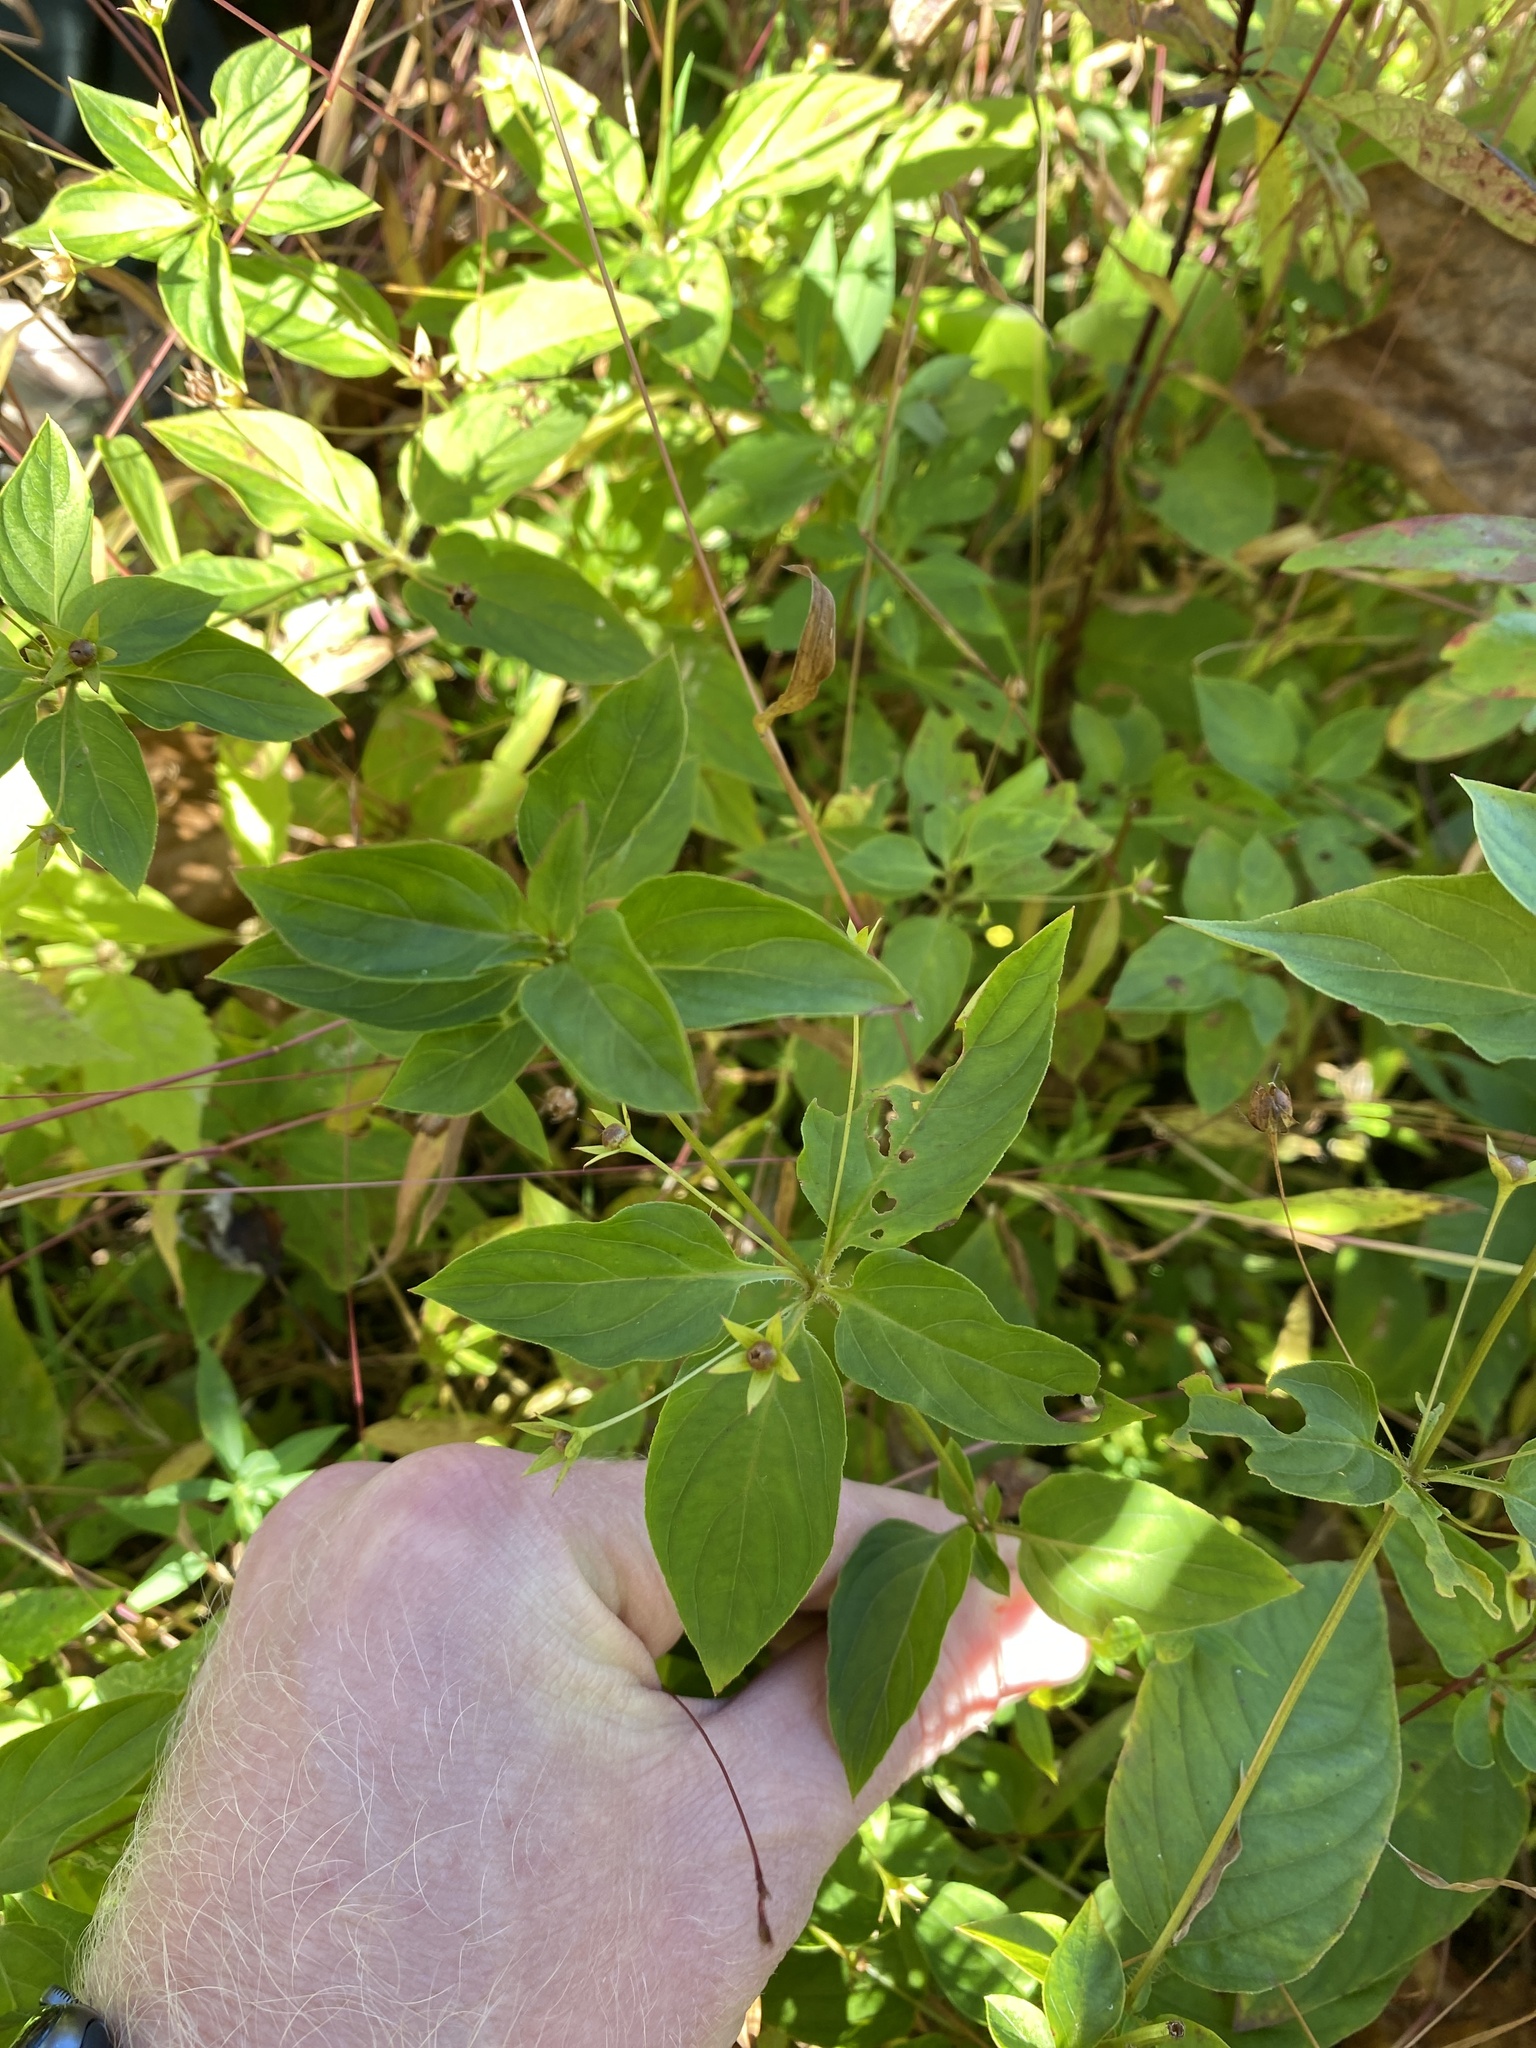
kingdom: Plantae
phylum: Tracheophyta
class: Magnoliopsida
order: Ericales
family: Primulaceae
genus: Lysimachia
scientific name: Lysimachia ciliata
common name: Fringed loosestrife
